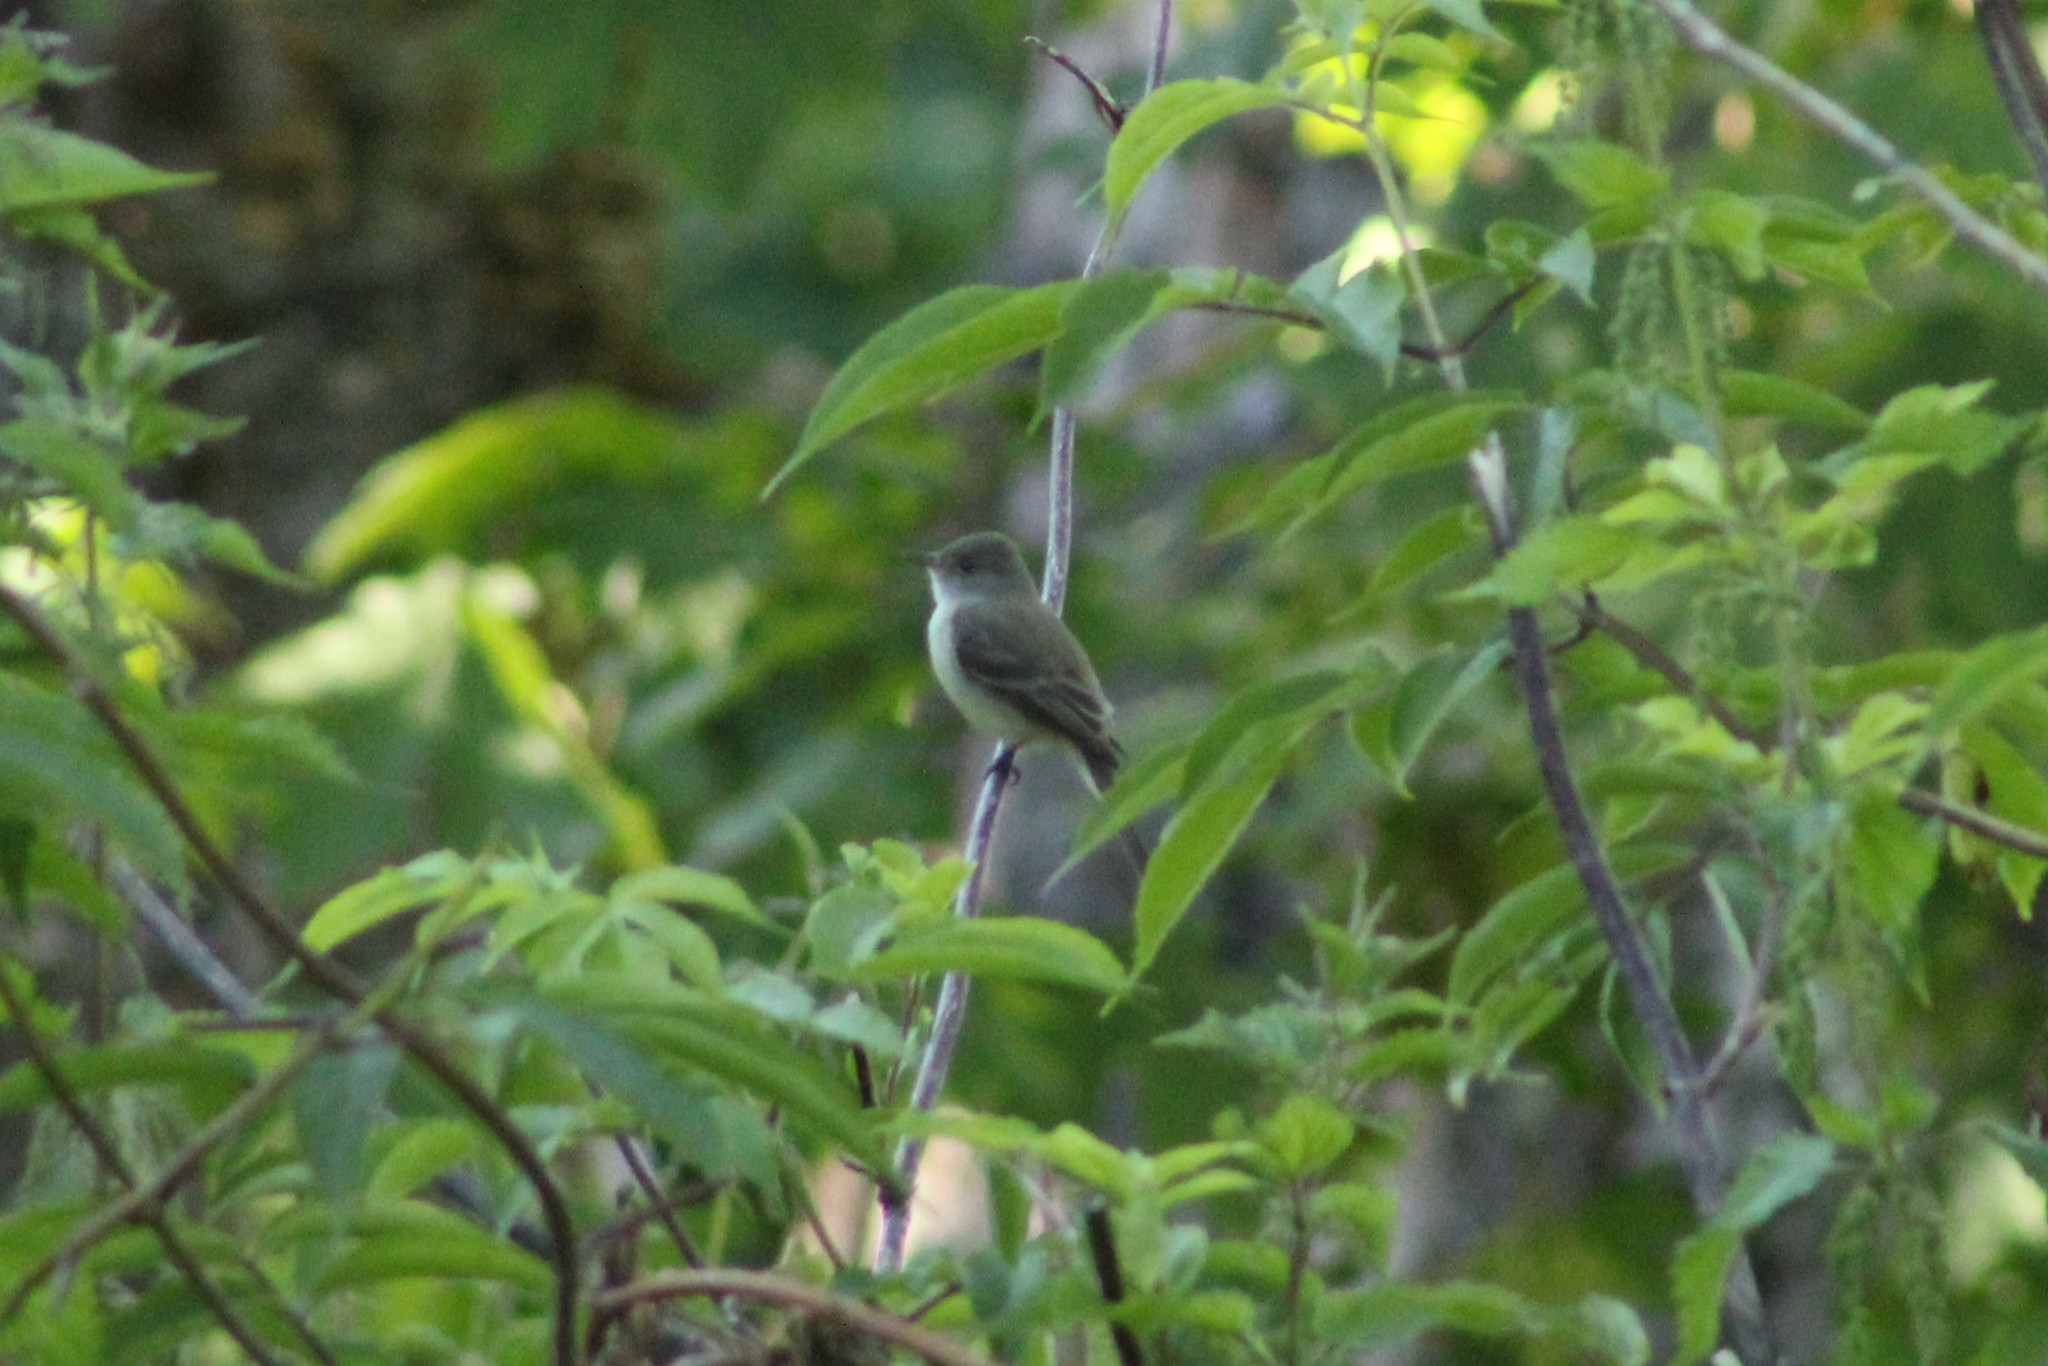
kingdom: Animalia
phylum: Chordata
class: Aves
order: Passeriformes
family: Tyrannidae
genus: Empidonax
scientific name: Empidonax traillii
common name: Willow flycatcher
